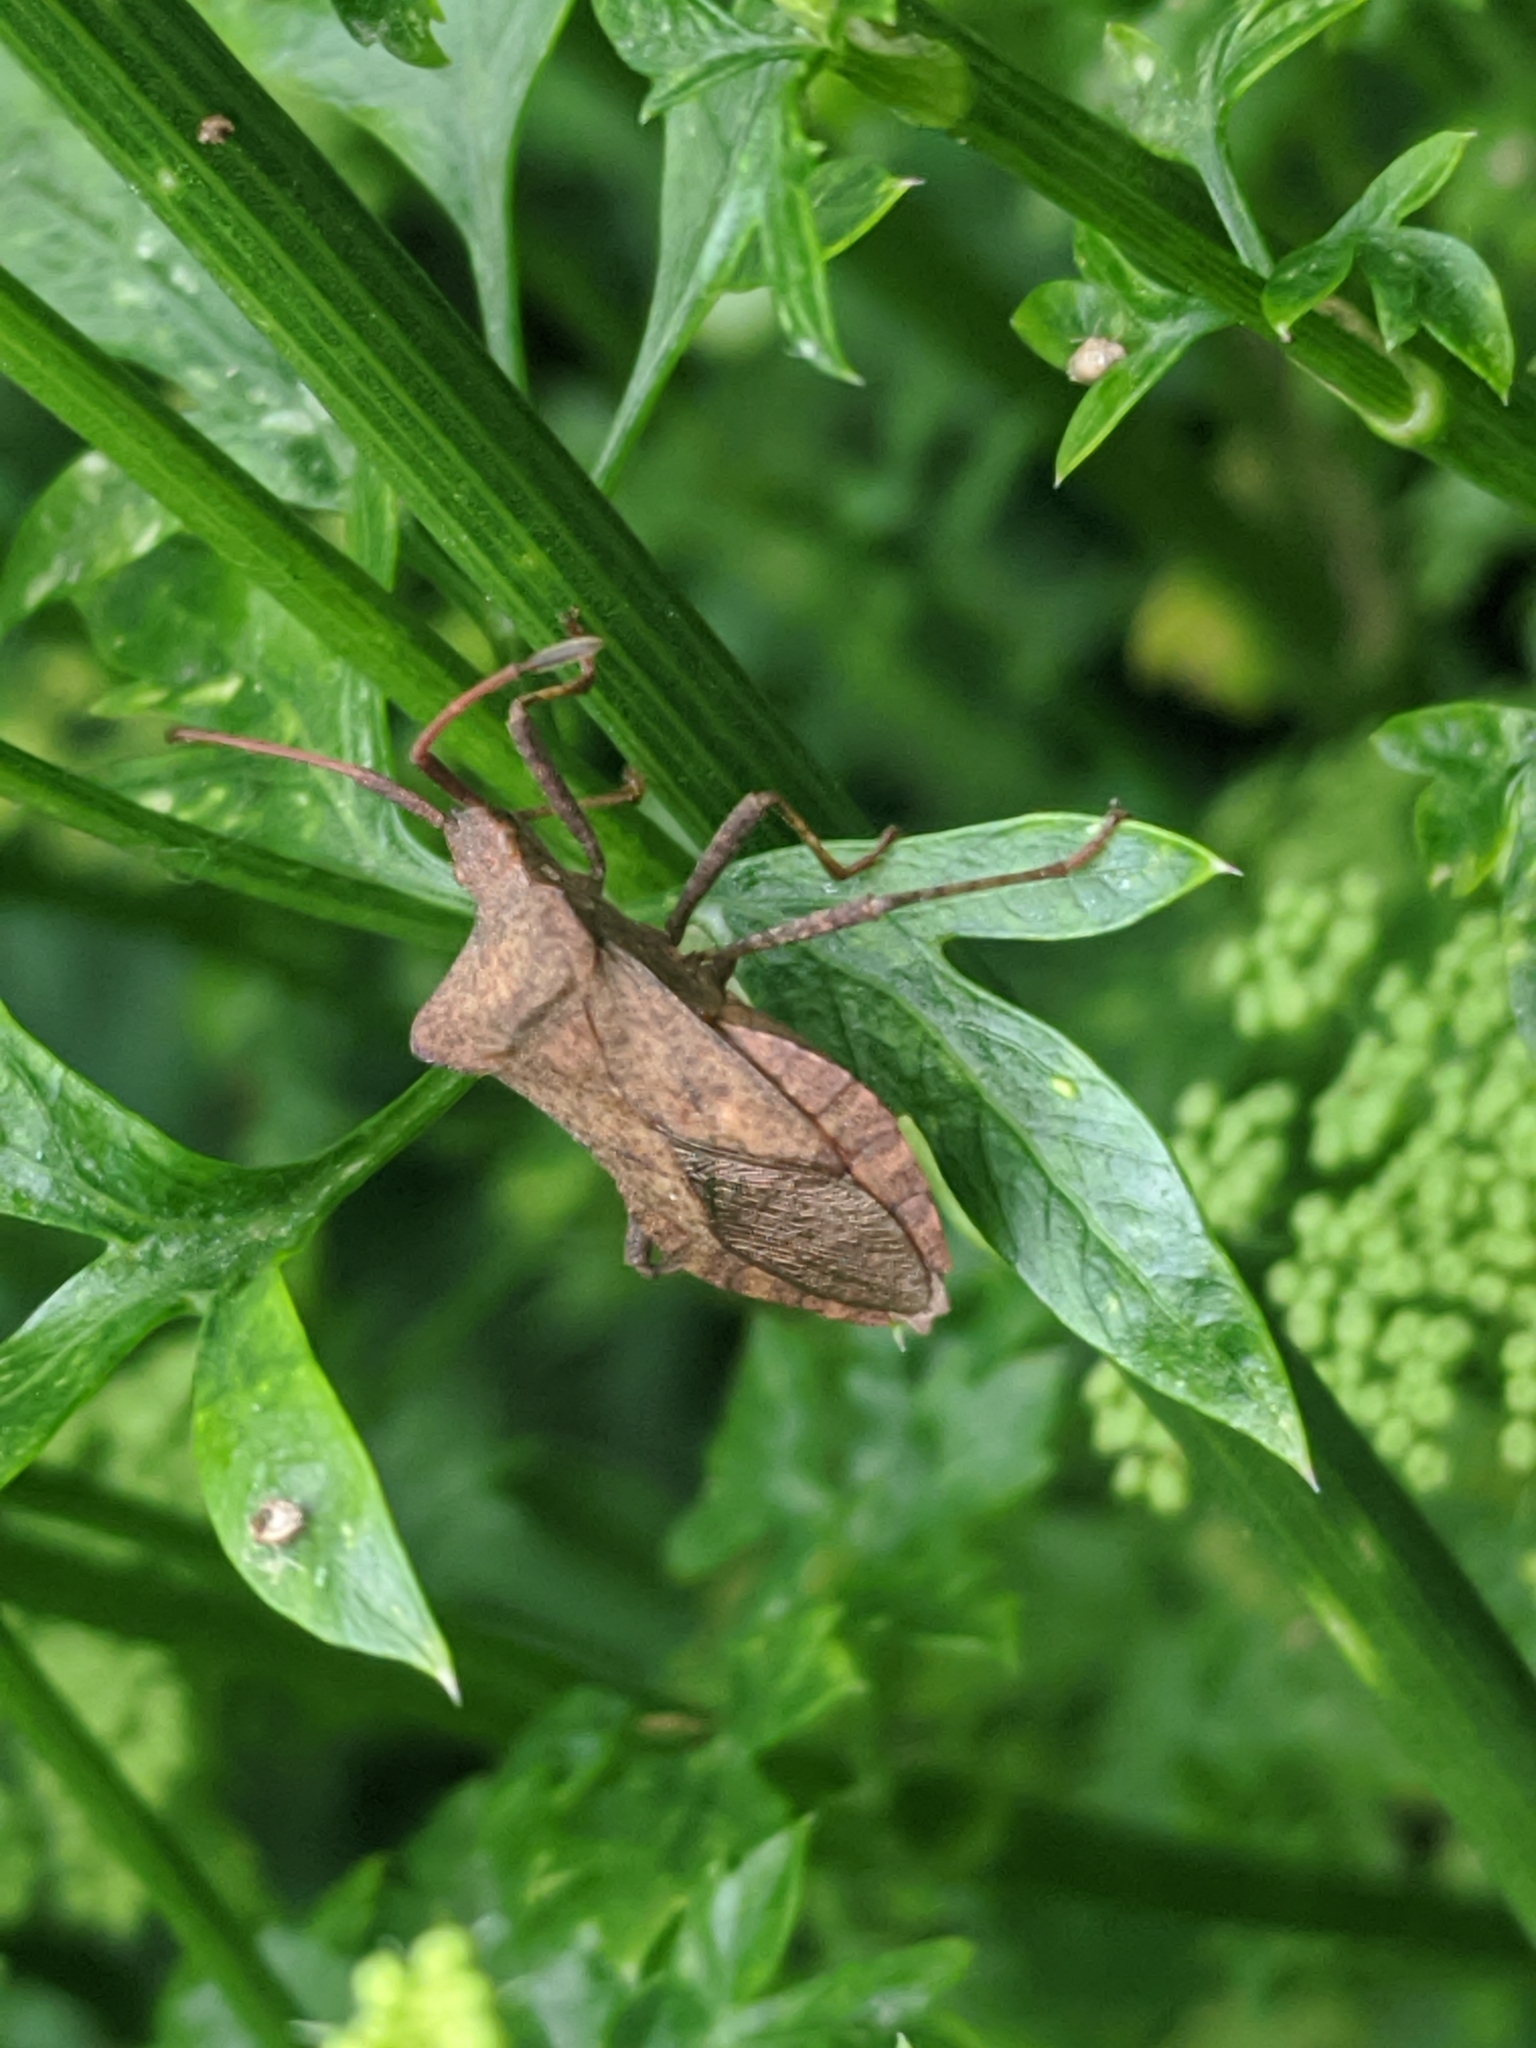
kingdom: Animalia
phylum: Arthropoda
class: Insecta
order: Hemiptera
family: Coreidae
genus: Coreus
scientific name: Coreus marginatus
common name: Dock bug
